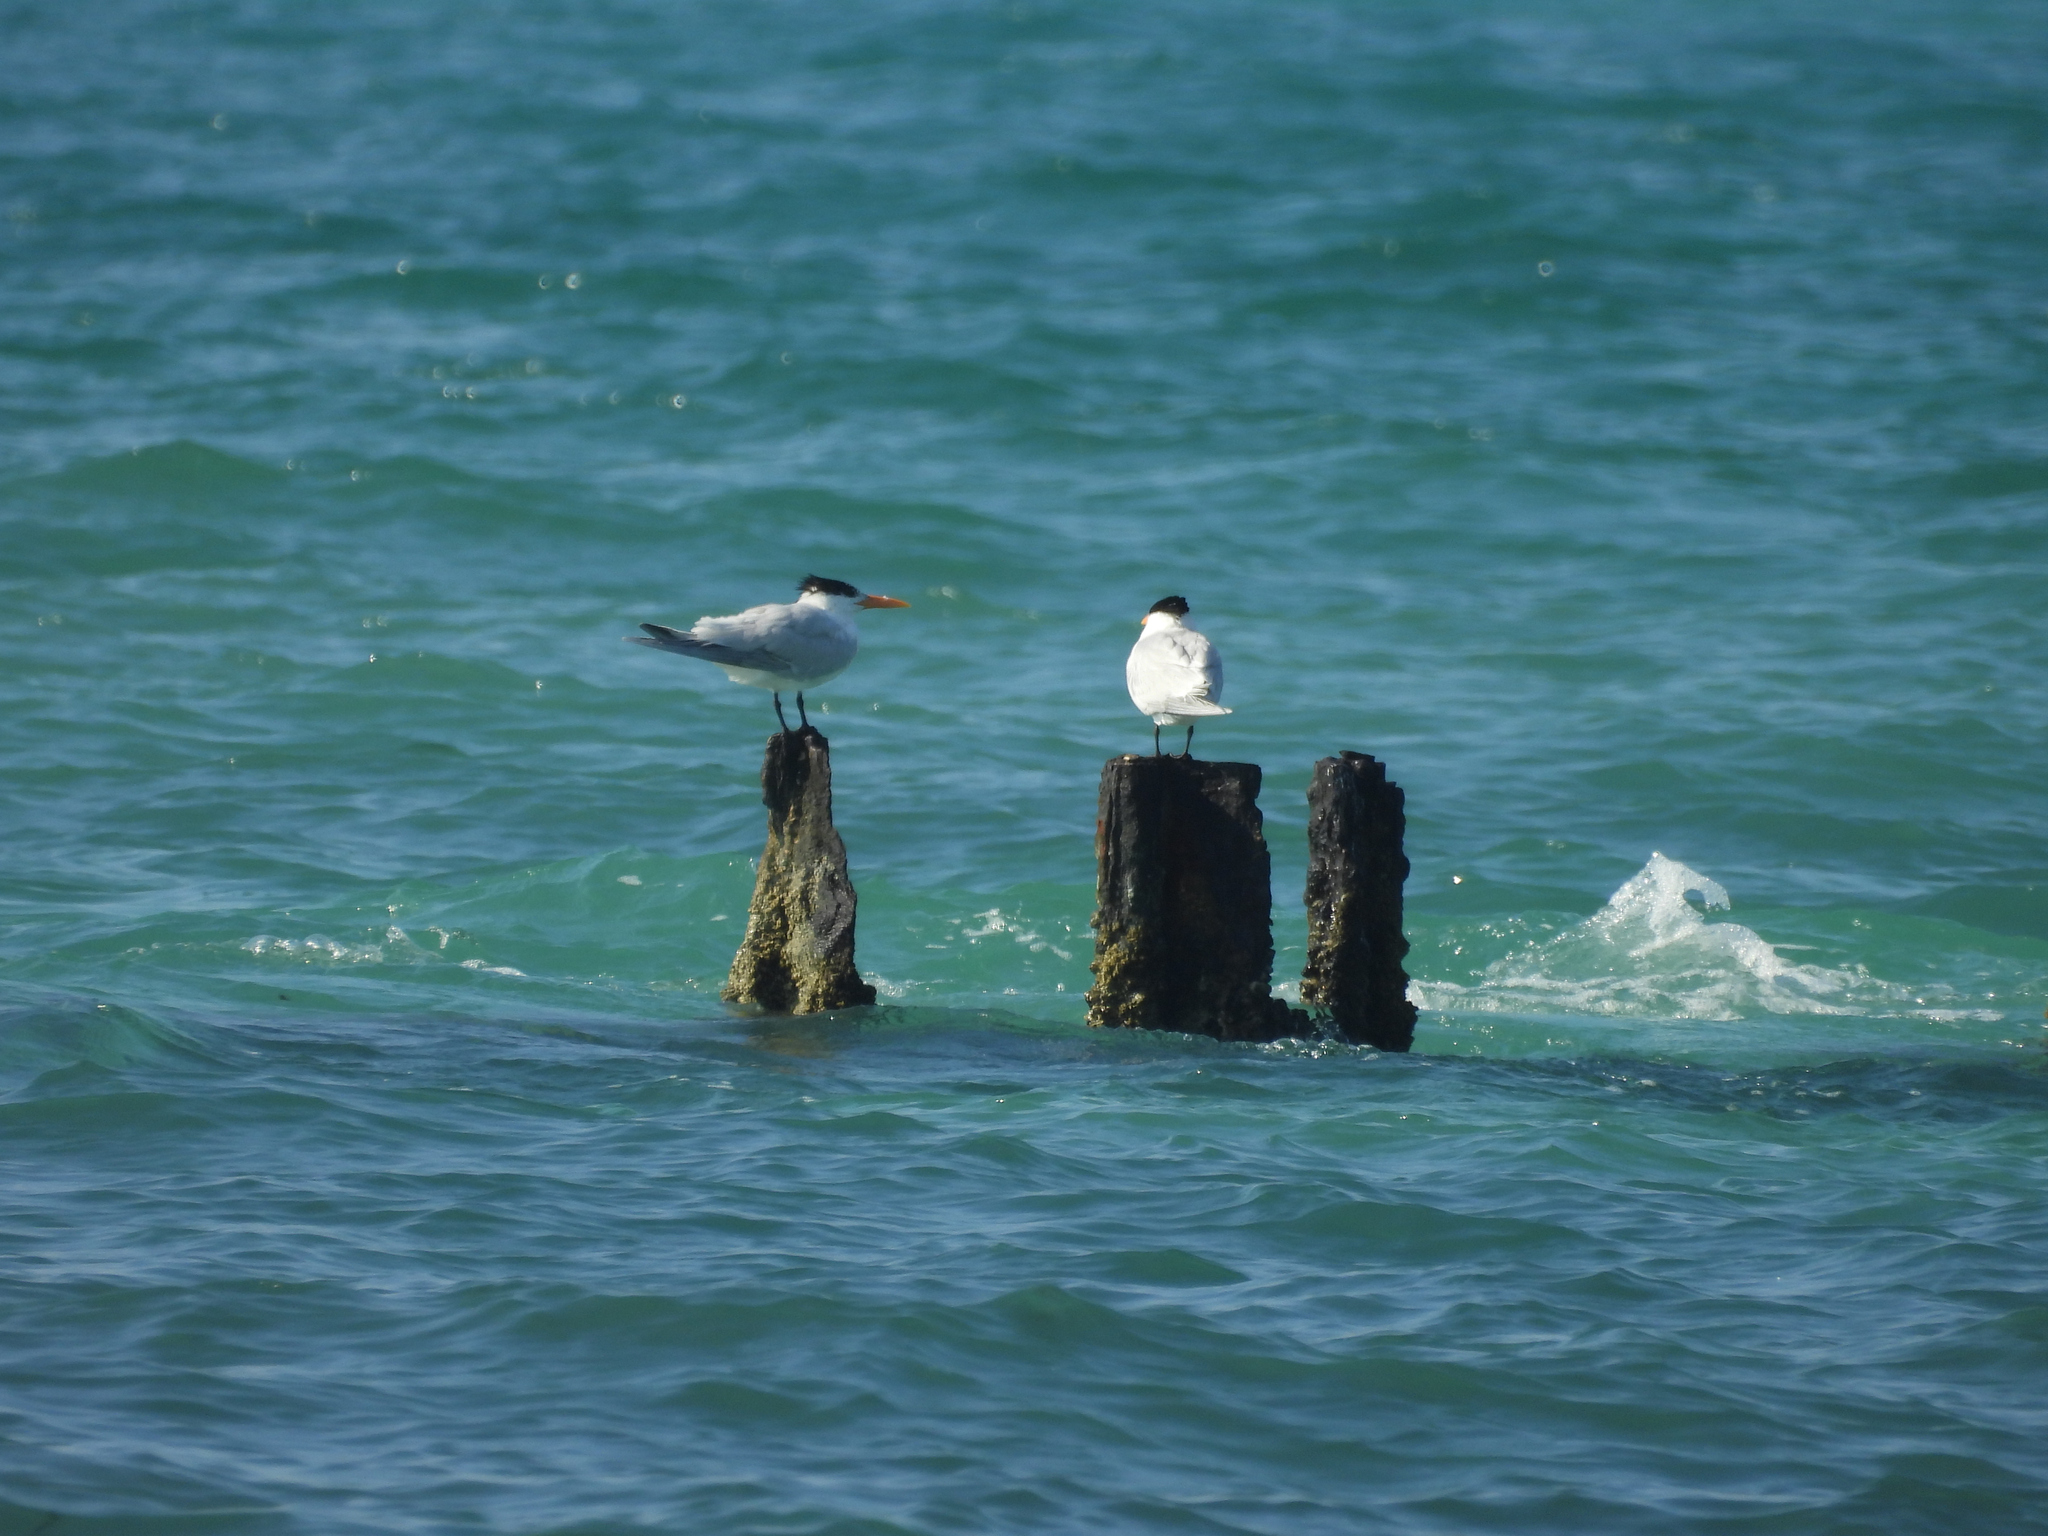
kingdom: Animalia
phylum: Chordata
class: Aves
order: Charadriiformes
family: Laridae
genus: Thalasseus
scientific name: Thalasseus maximus
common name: Royal tern
